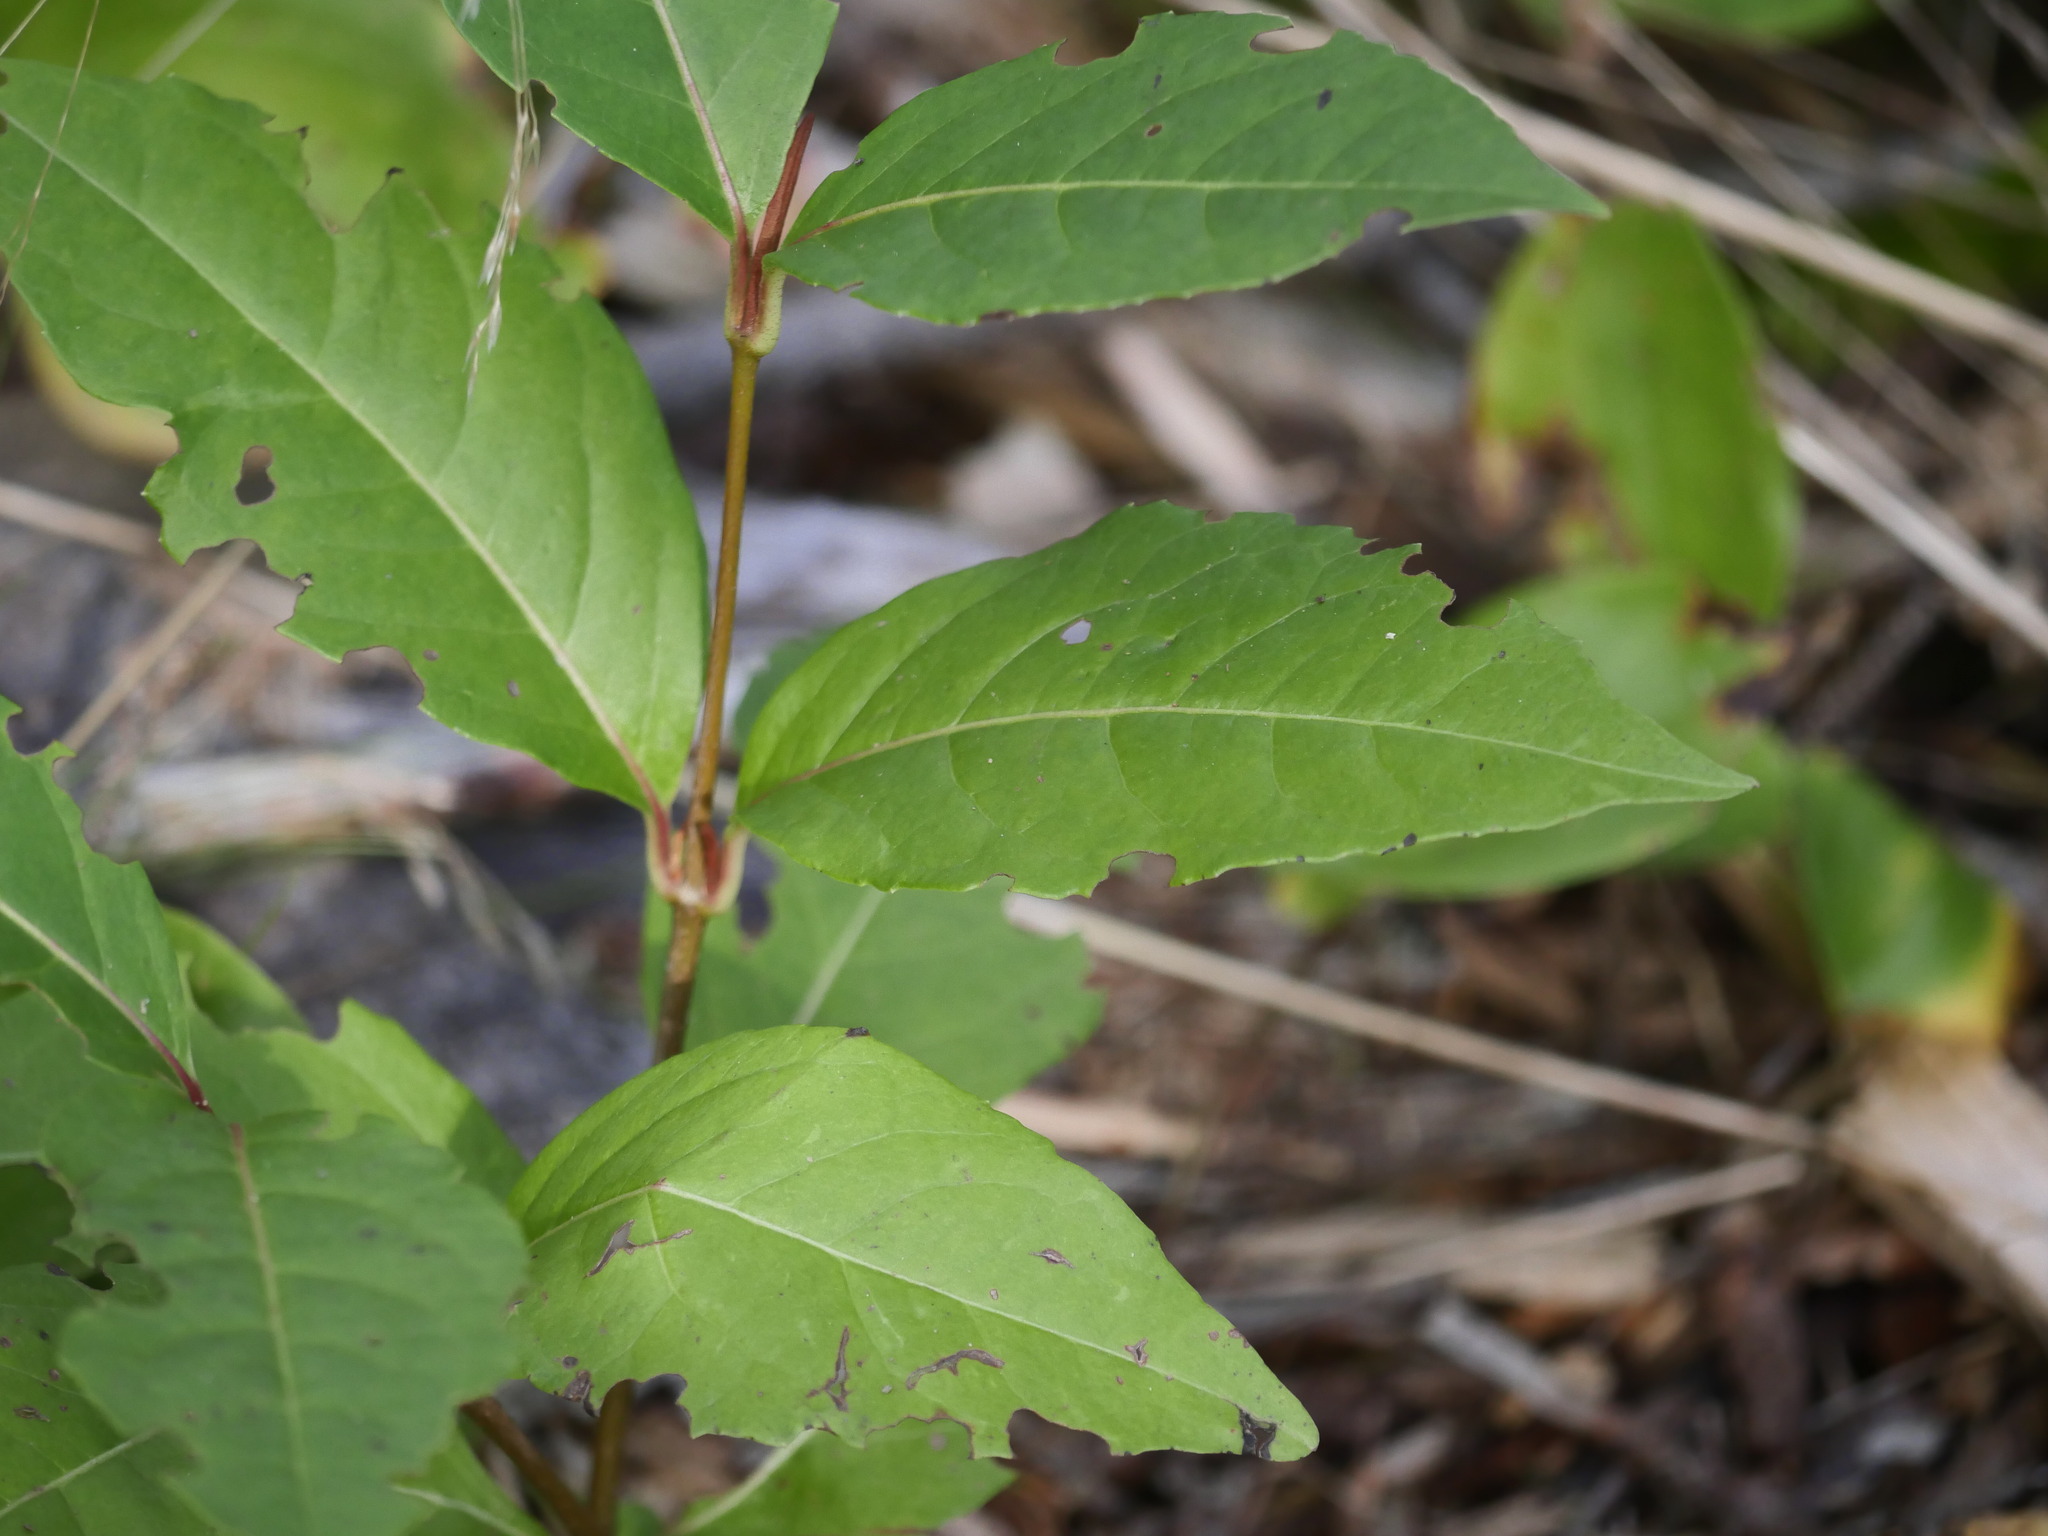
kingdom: Plantae
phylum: Tracheophyta
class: Magnoliopsida
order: Dipsacales
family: Viburnaceae
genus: Viburnum
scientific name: Viburnum cassinoides
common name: Swamp haw
